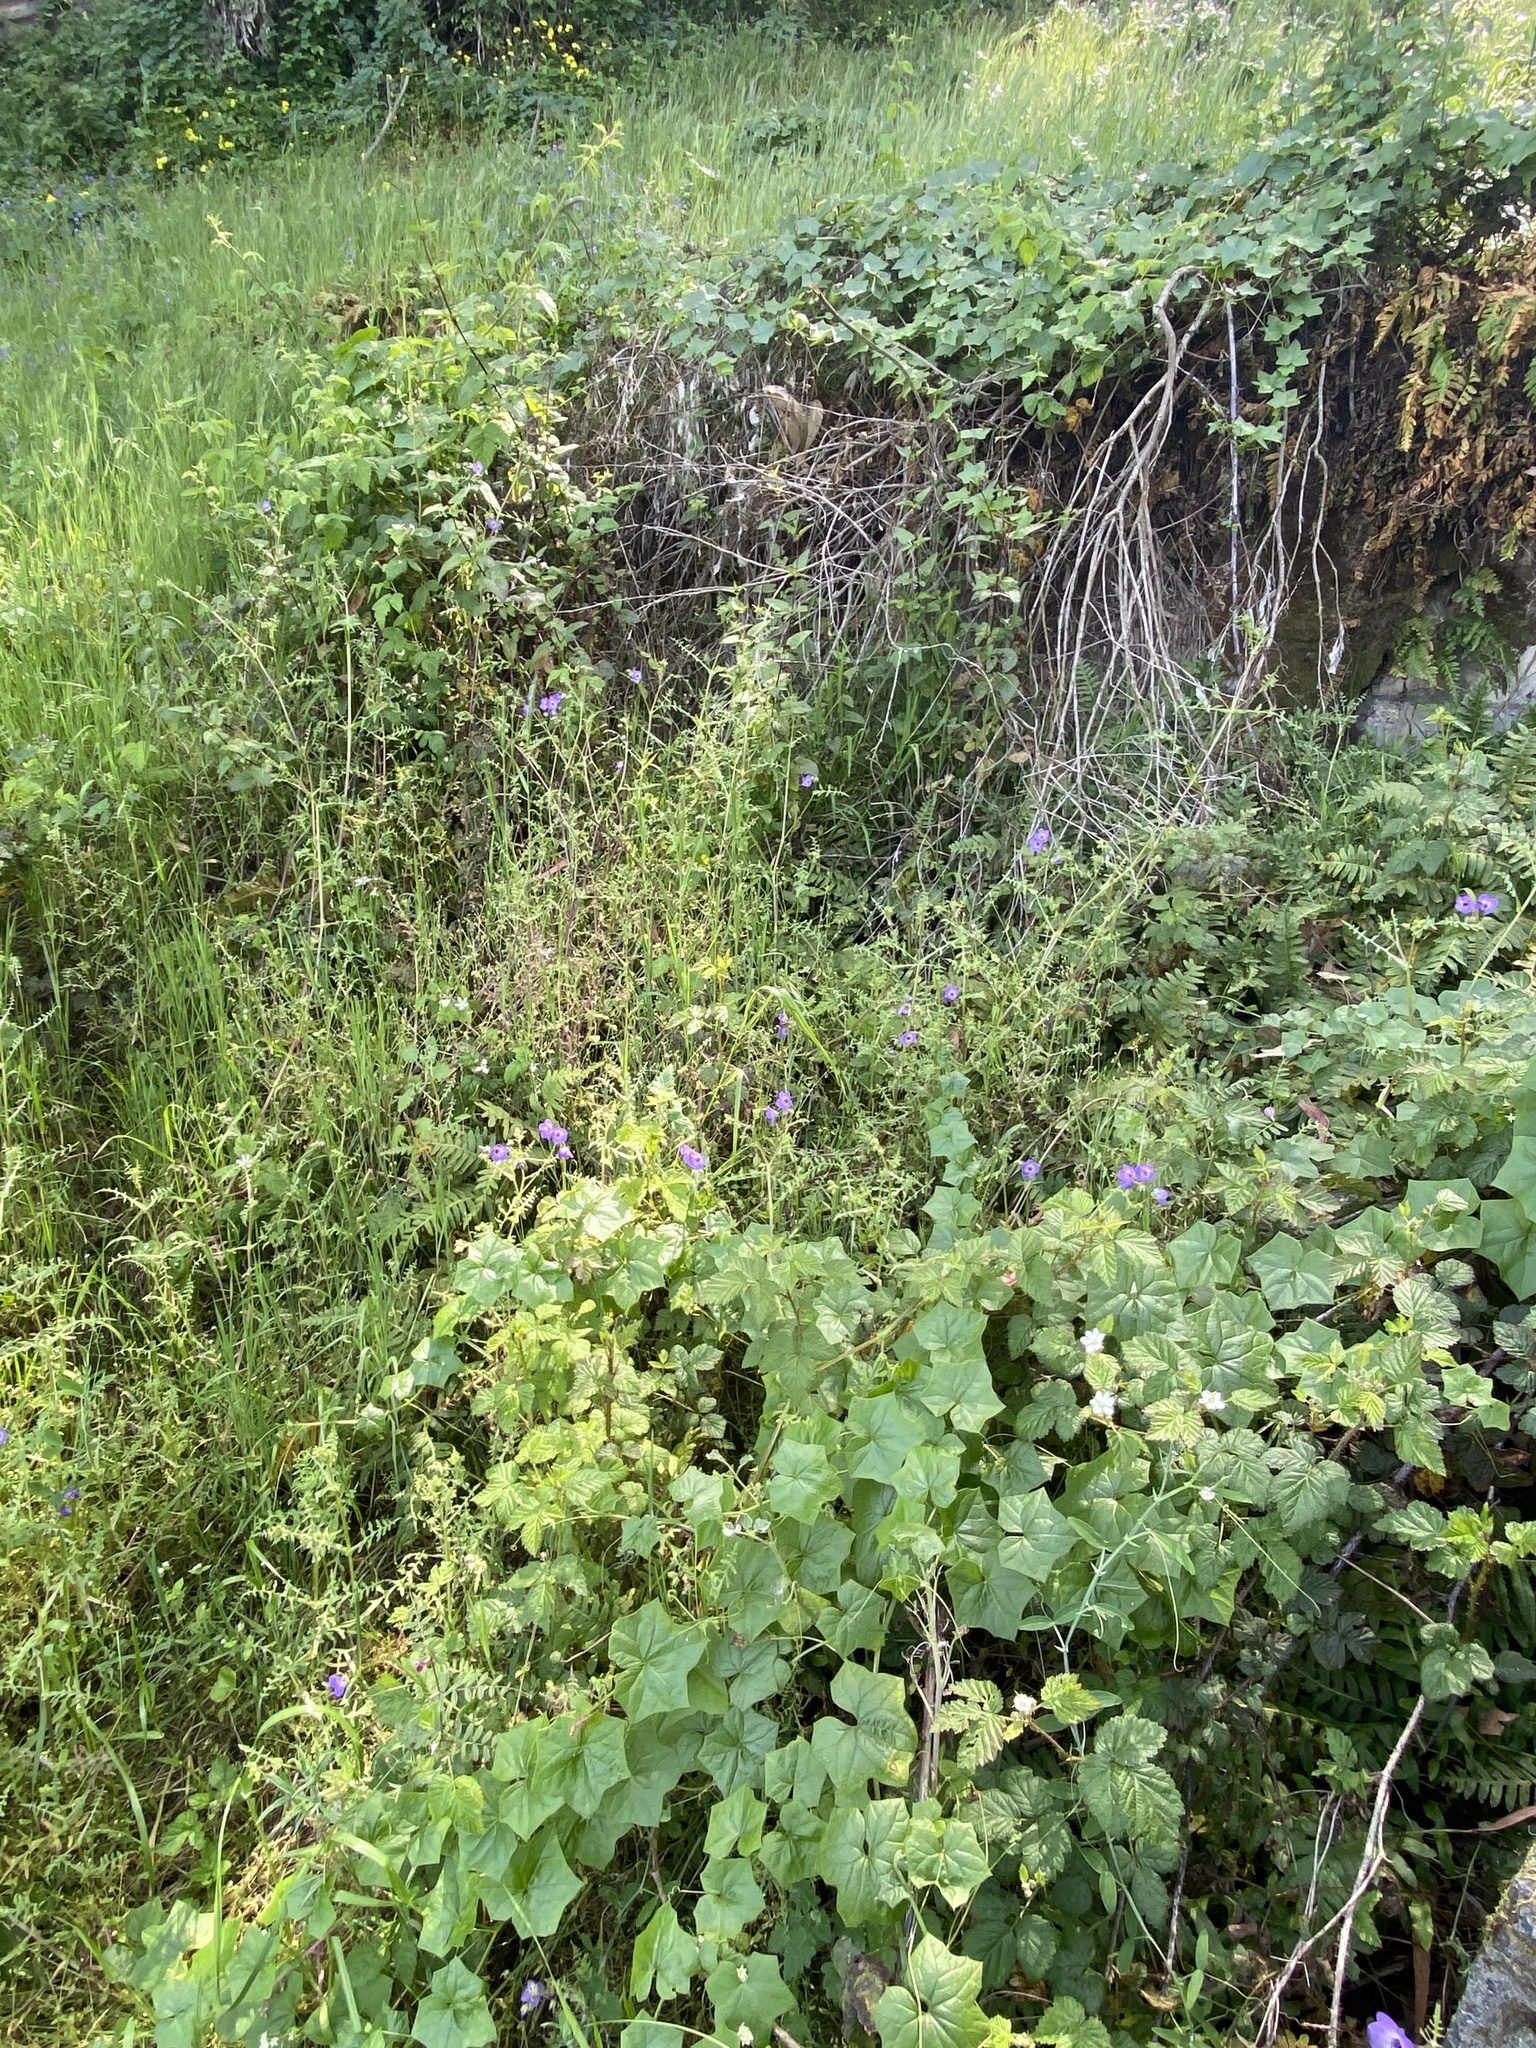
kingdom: Plantae
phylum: Tracheophyta
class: Magnoliopsida
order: Boraginales
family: Hydrophyllaceae
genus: Pholistoma
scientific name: Pholistoma auritum
